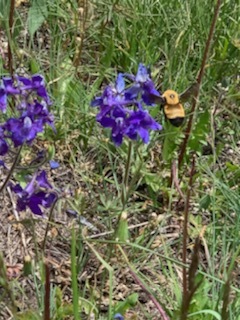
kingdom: Animalia
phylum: Arthropoda
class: Insecta
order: Hymenoptera
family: Apidae
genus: Bombus
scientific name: Bombus nevadensis
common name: Nevada bumble bee
